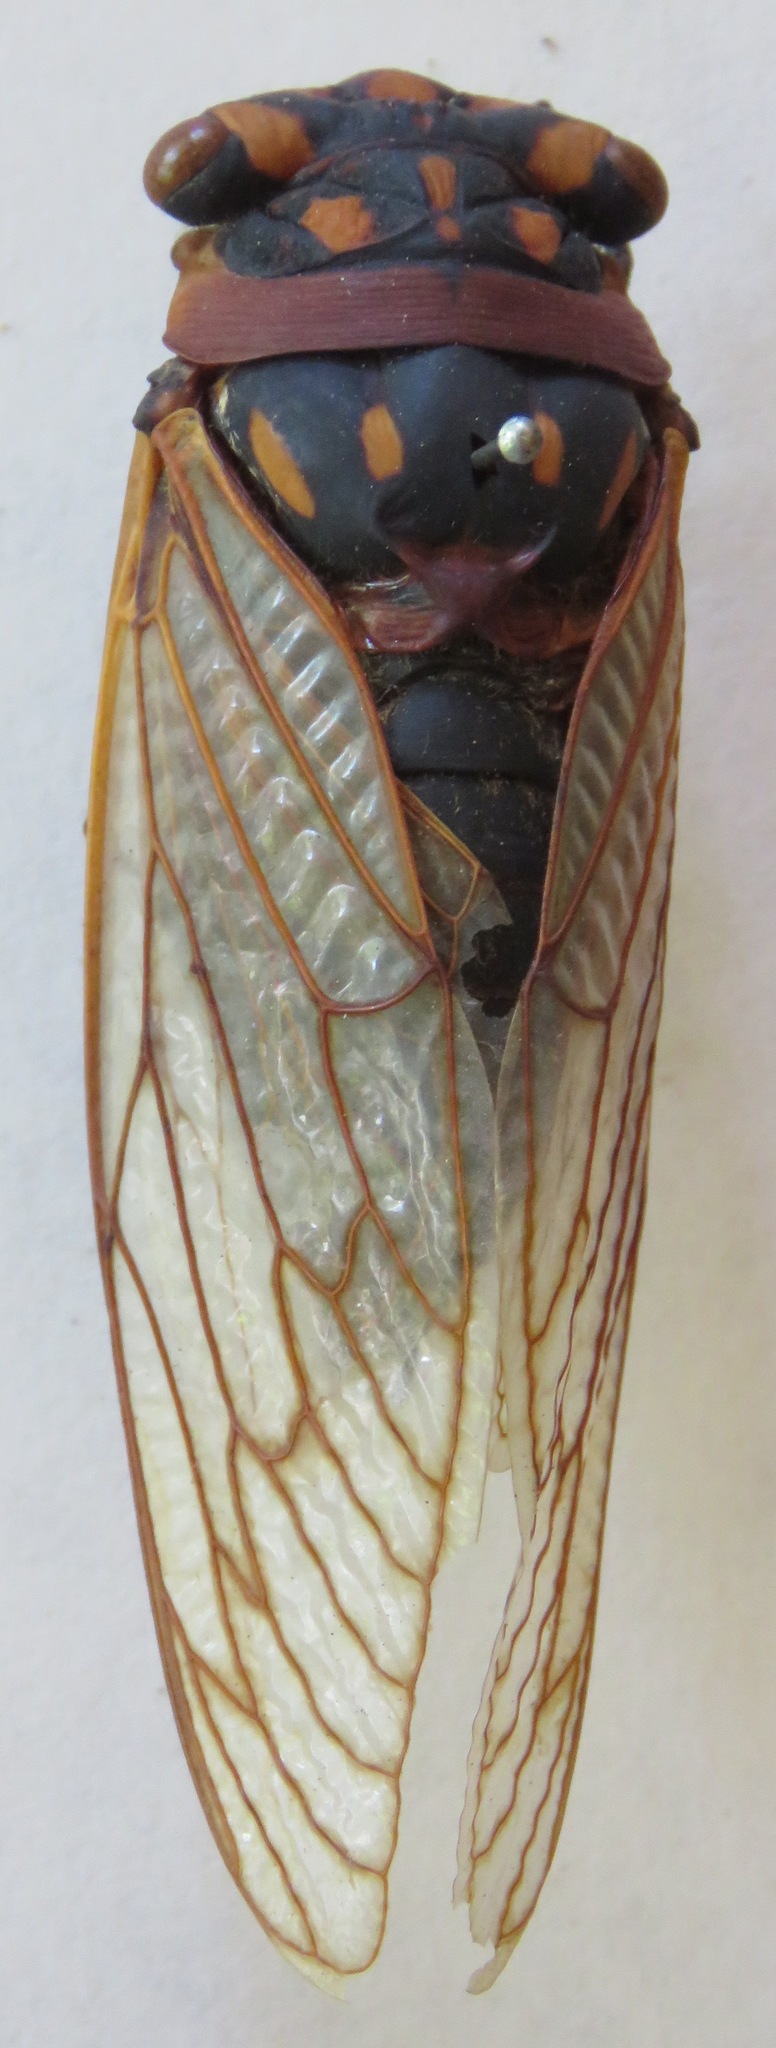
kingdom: Animalia
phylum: Arthropoda
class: Insecta
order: Hemiptera
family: Cicadidae
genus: Macrotristria
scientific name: Macrotristria angularis
